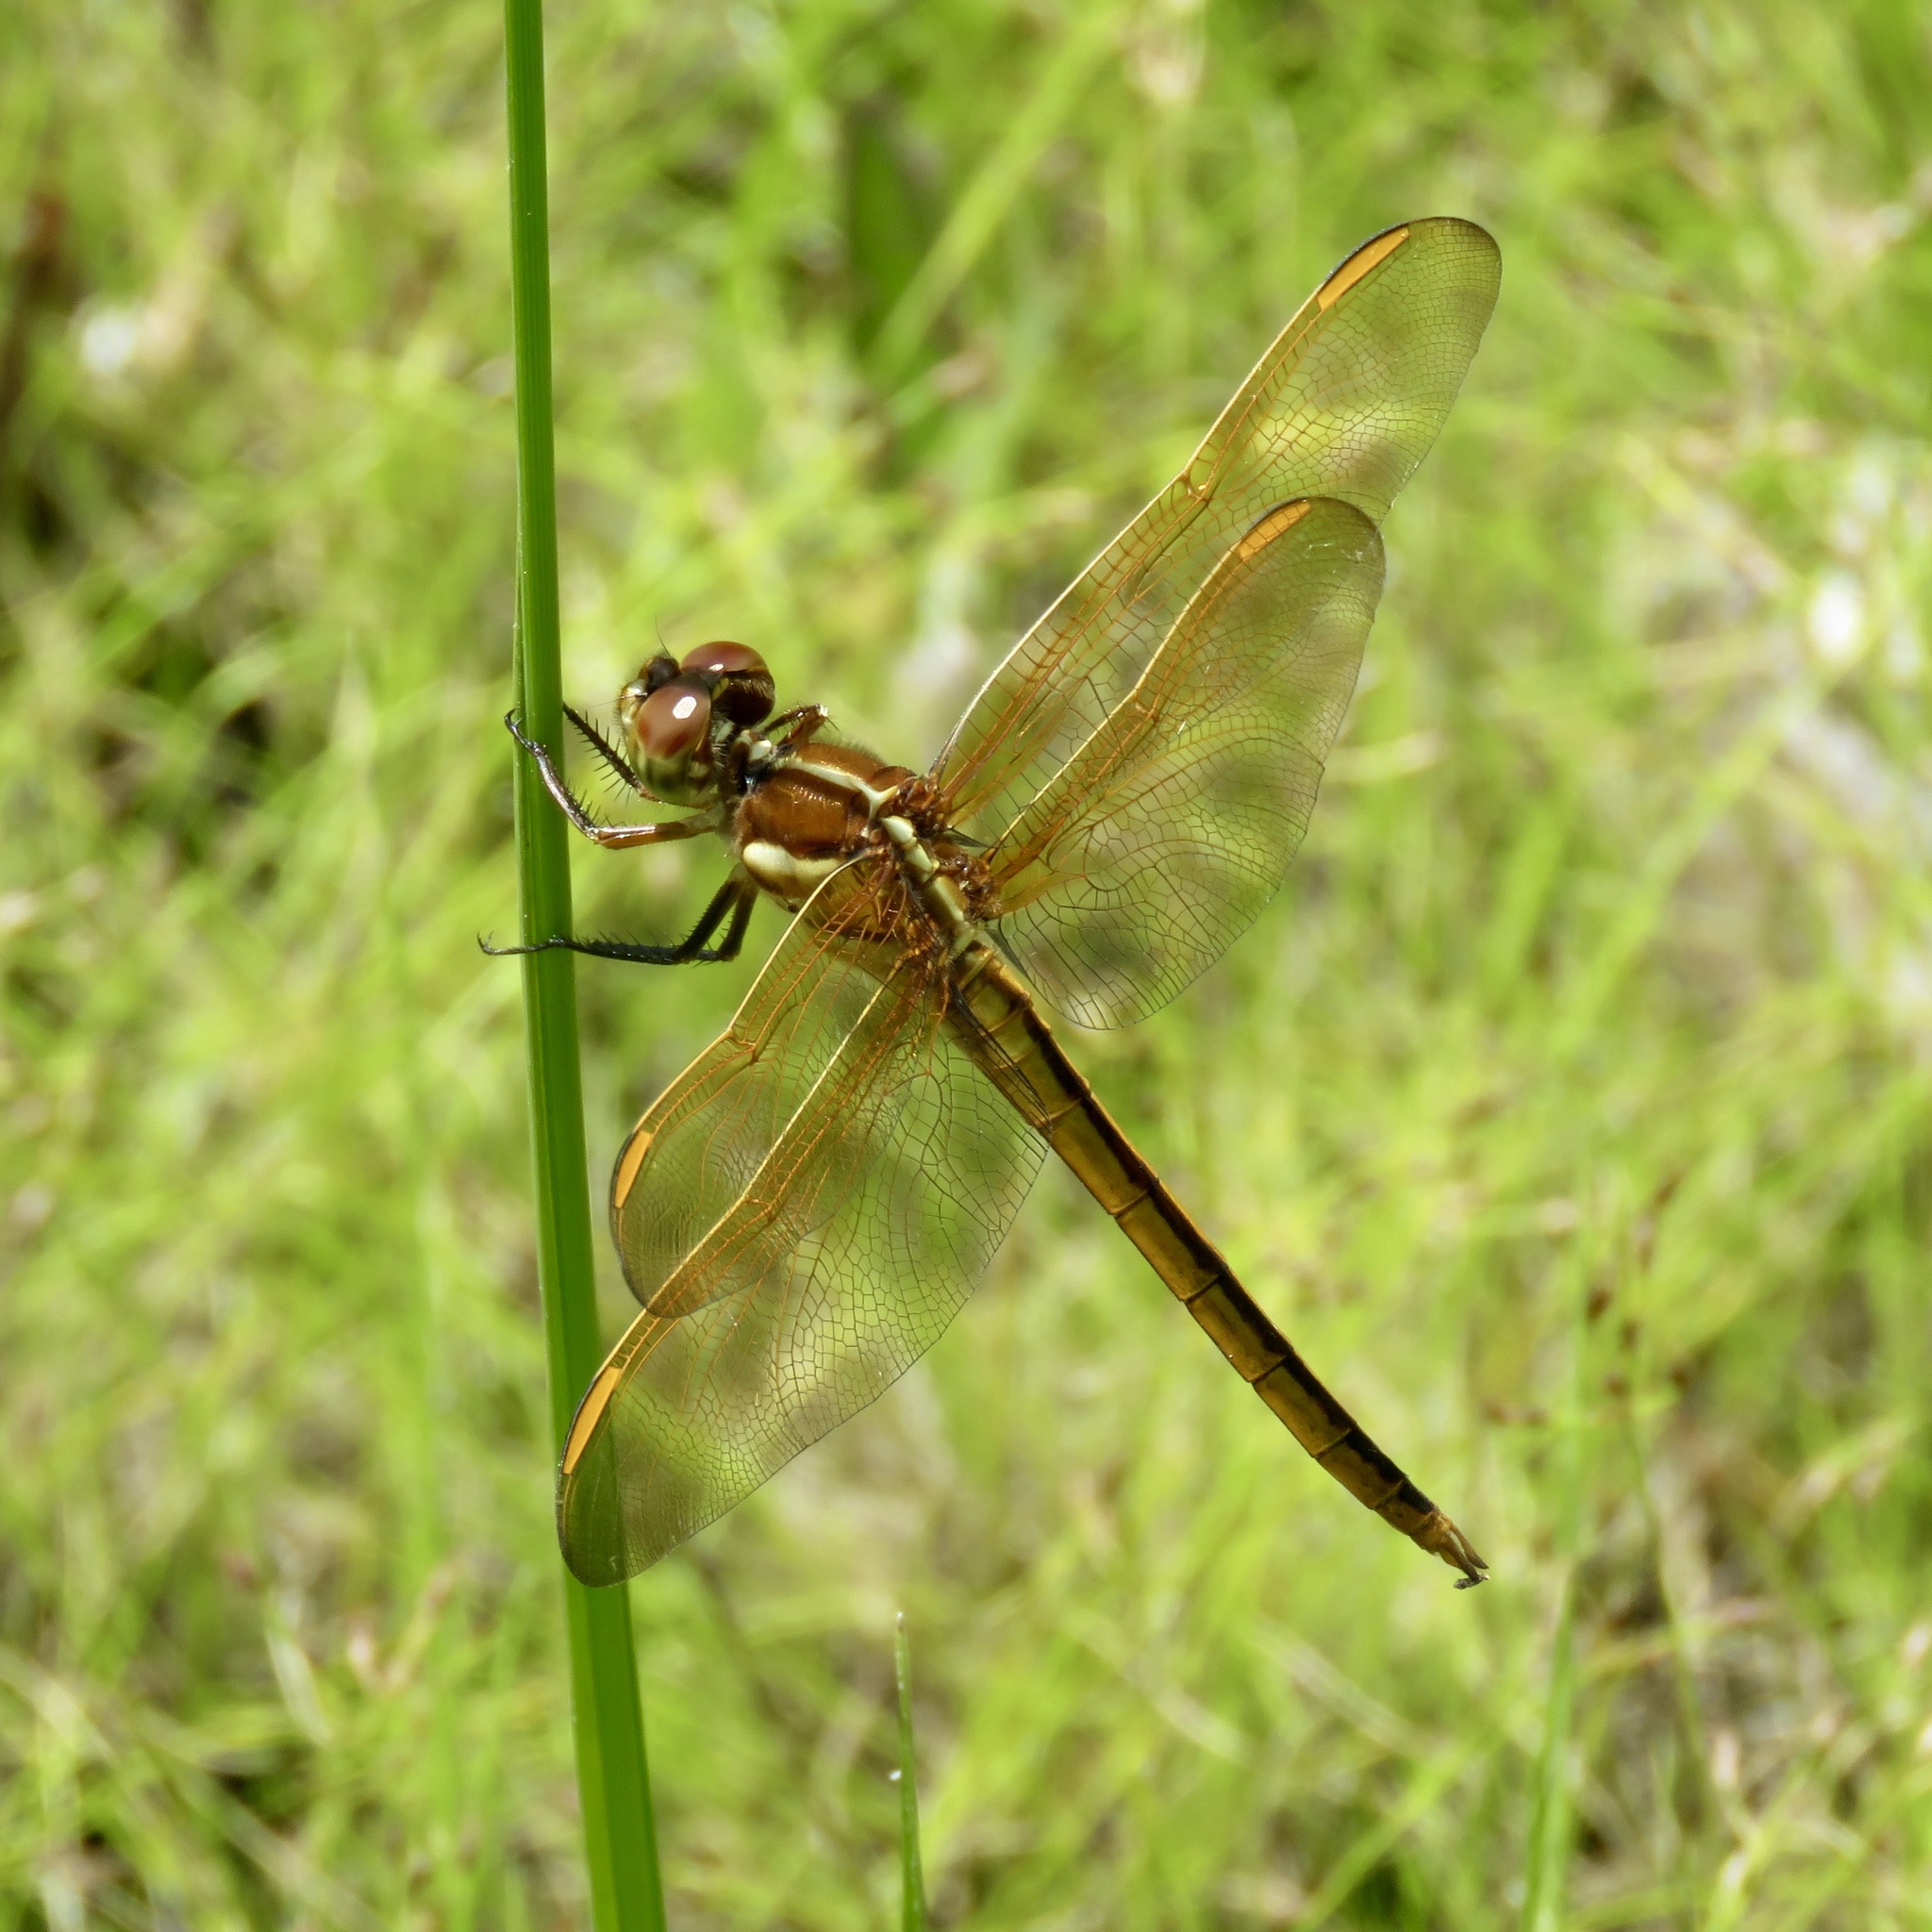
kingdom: Animalia
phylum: Arthropoda
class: Insecta
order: Odonata
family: Libellulidae
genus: Libellula
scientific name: Libellula auripennis
